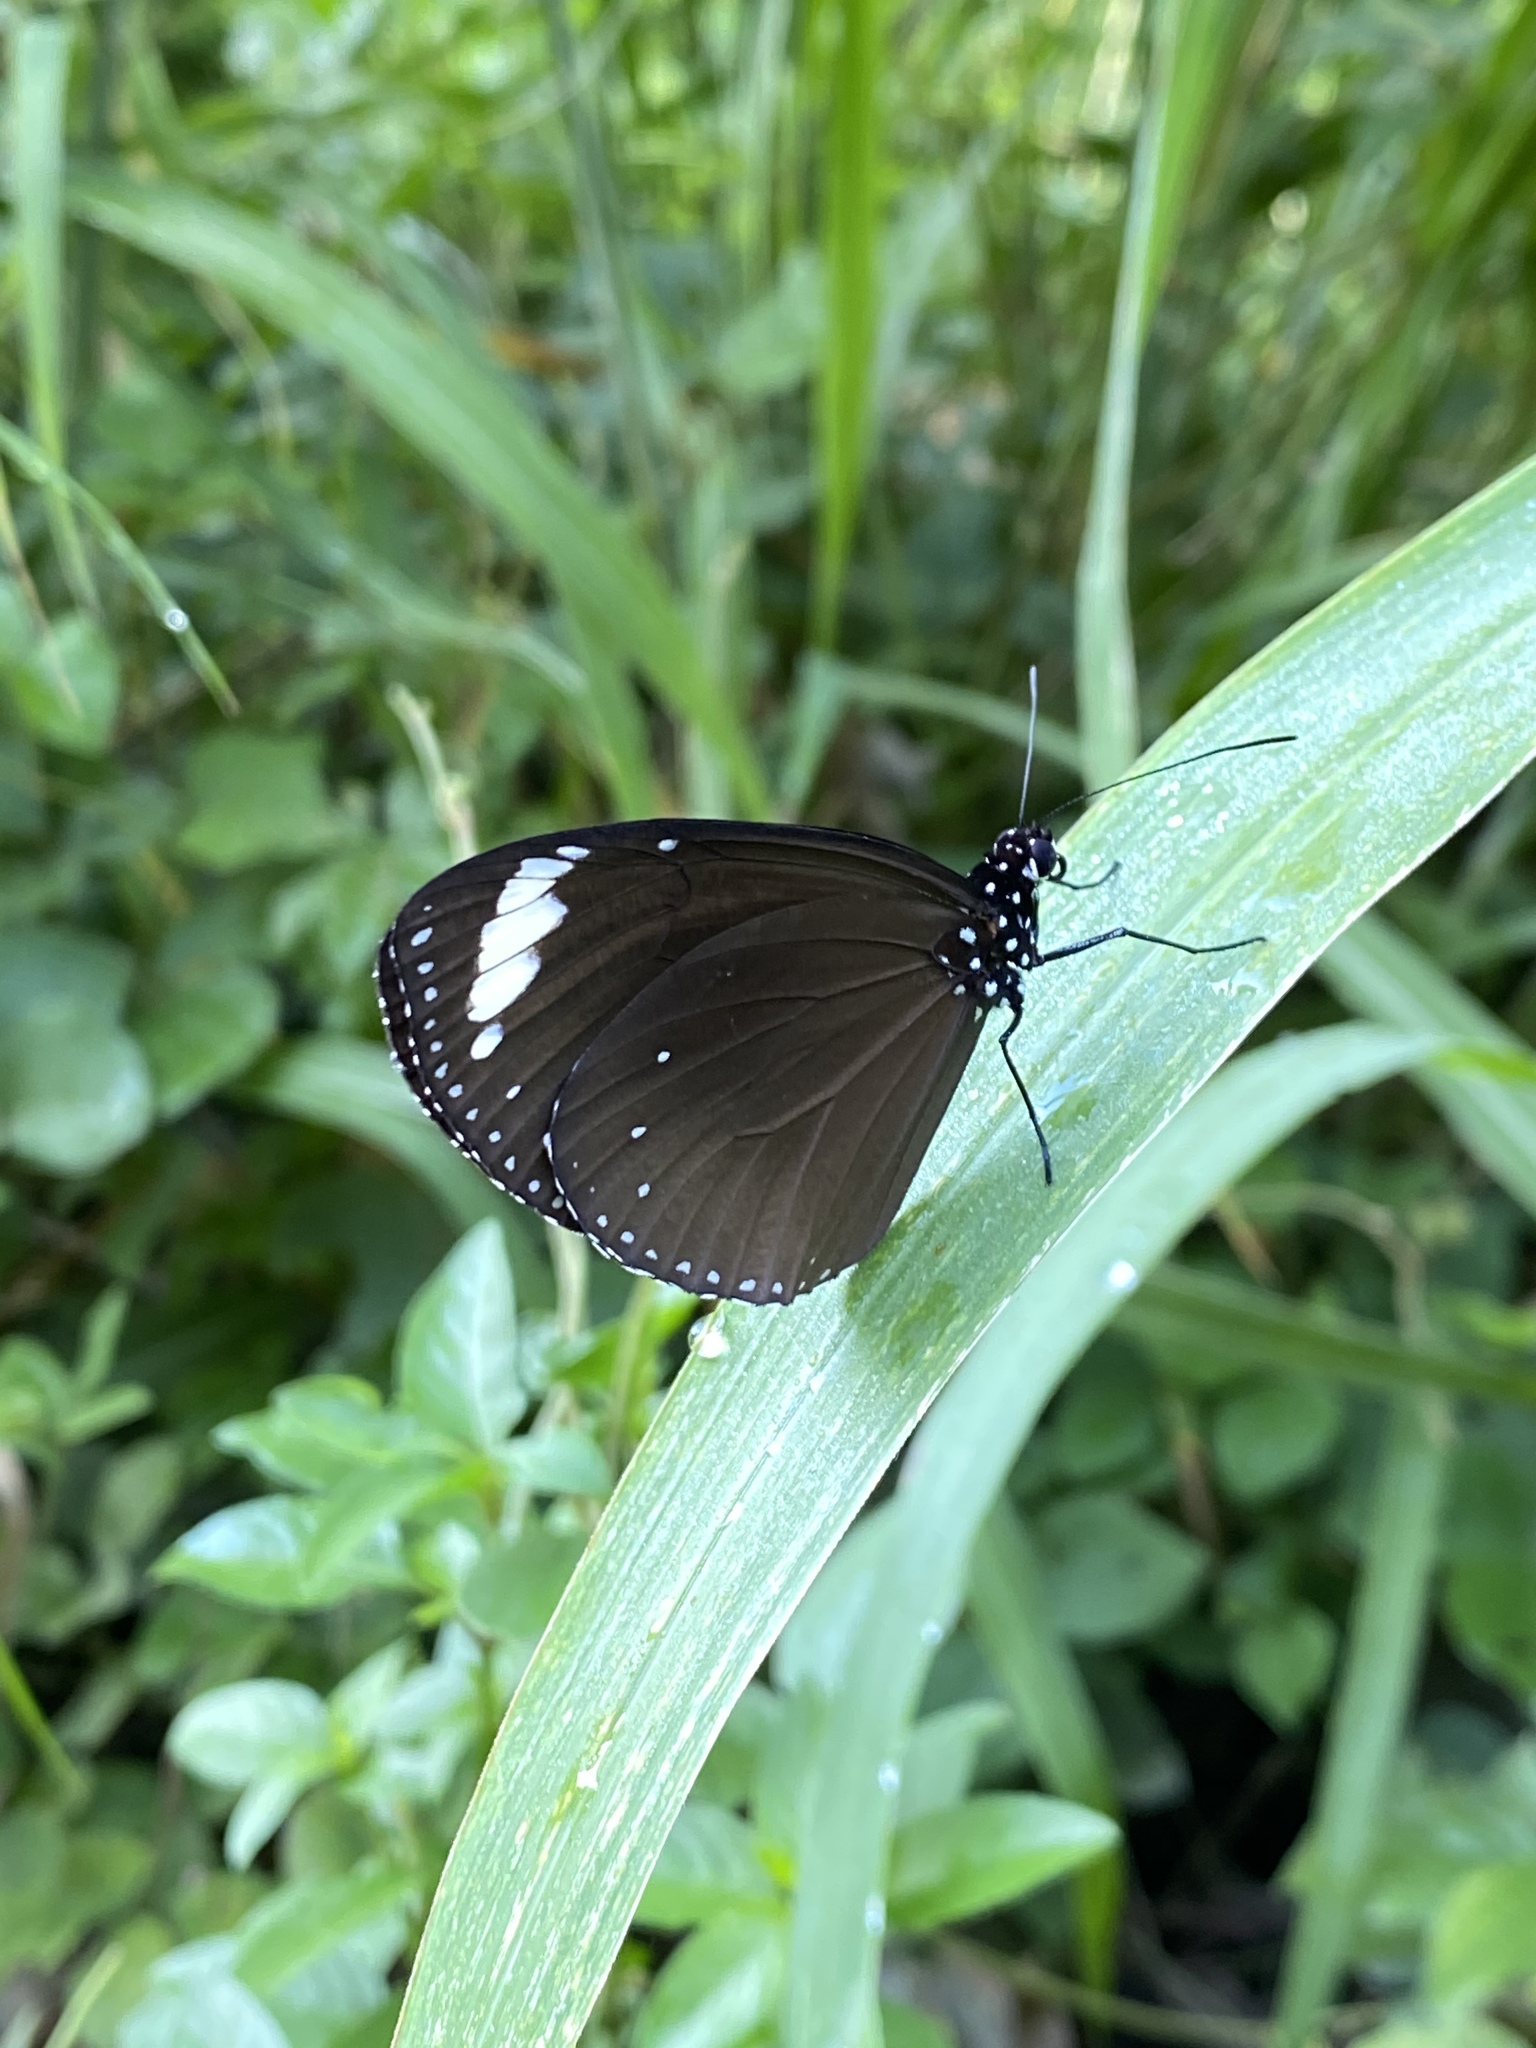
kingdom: Animalia
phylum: Arthropoda
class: Insecta
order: Lepidoptera
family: Nymphalidae
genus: Euploea
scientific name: Euploea tulliolus
